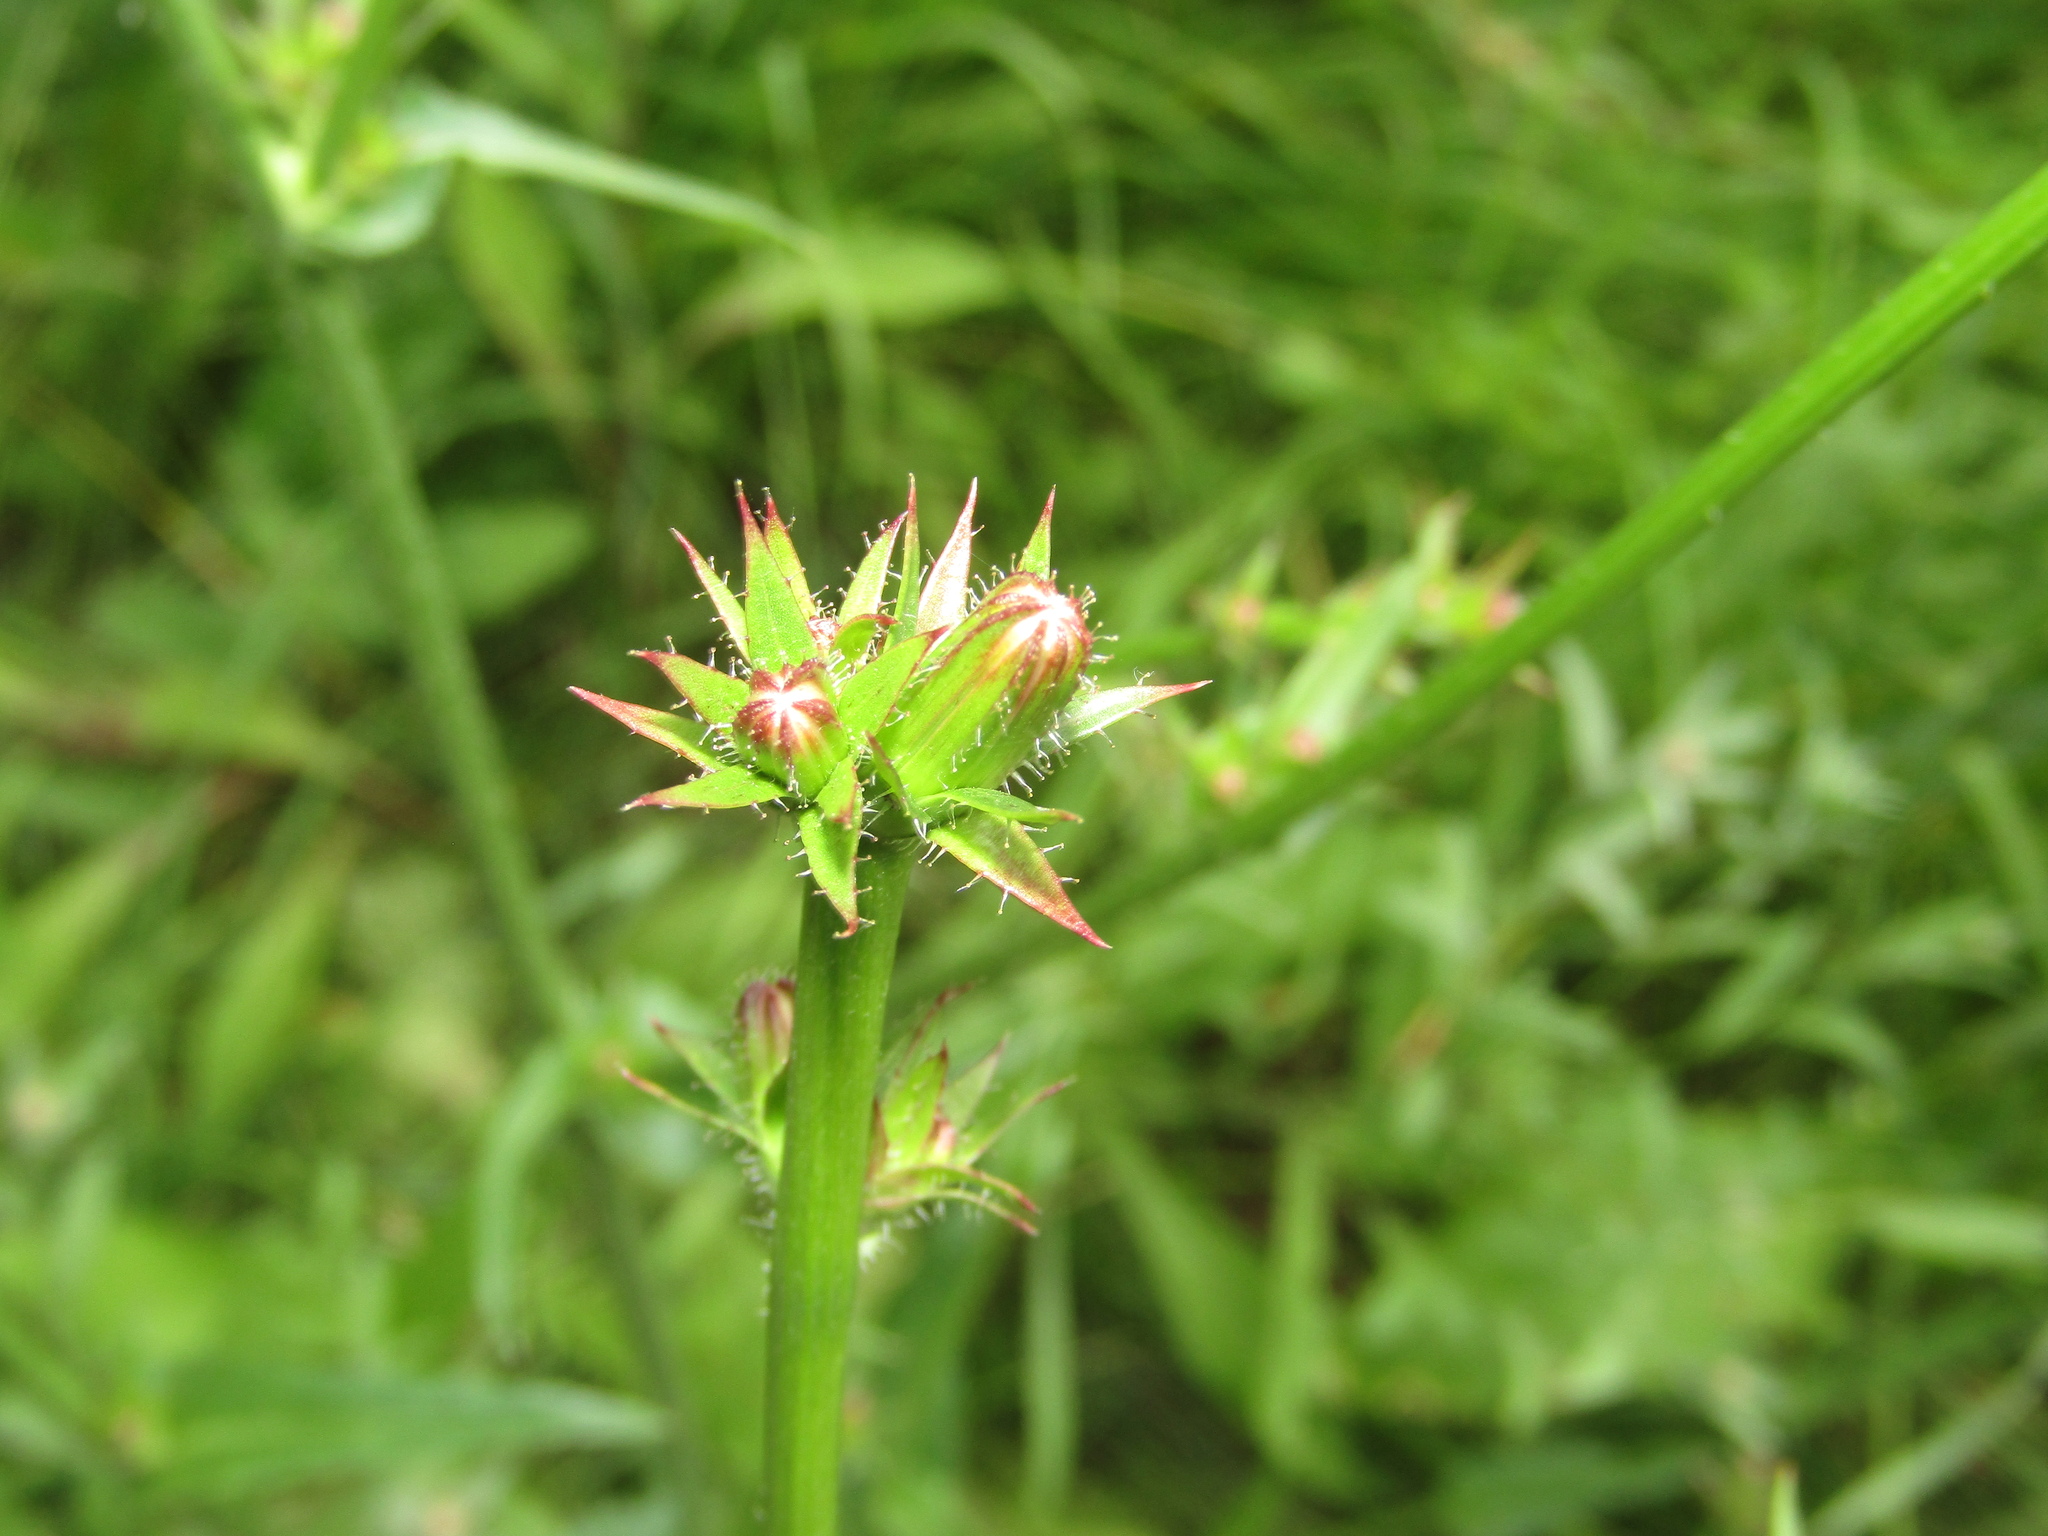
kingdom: Plantae
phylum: Tracheophyta
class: Magnoliopsida
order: Asterales
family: Asteraceae
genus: Cichorium
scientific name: Cichorium intybus
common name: Chicory
